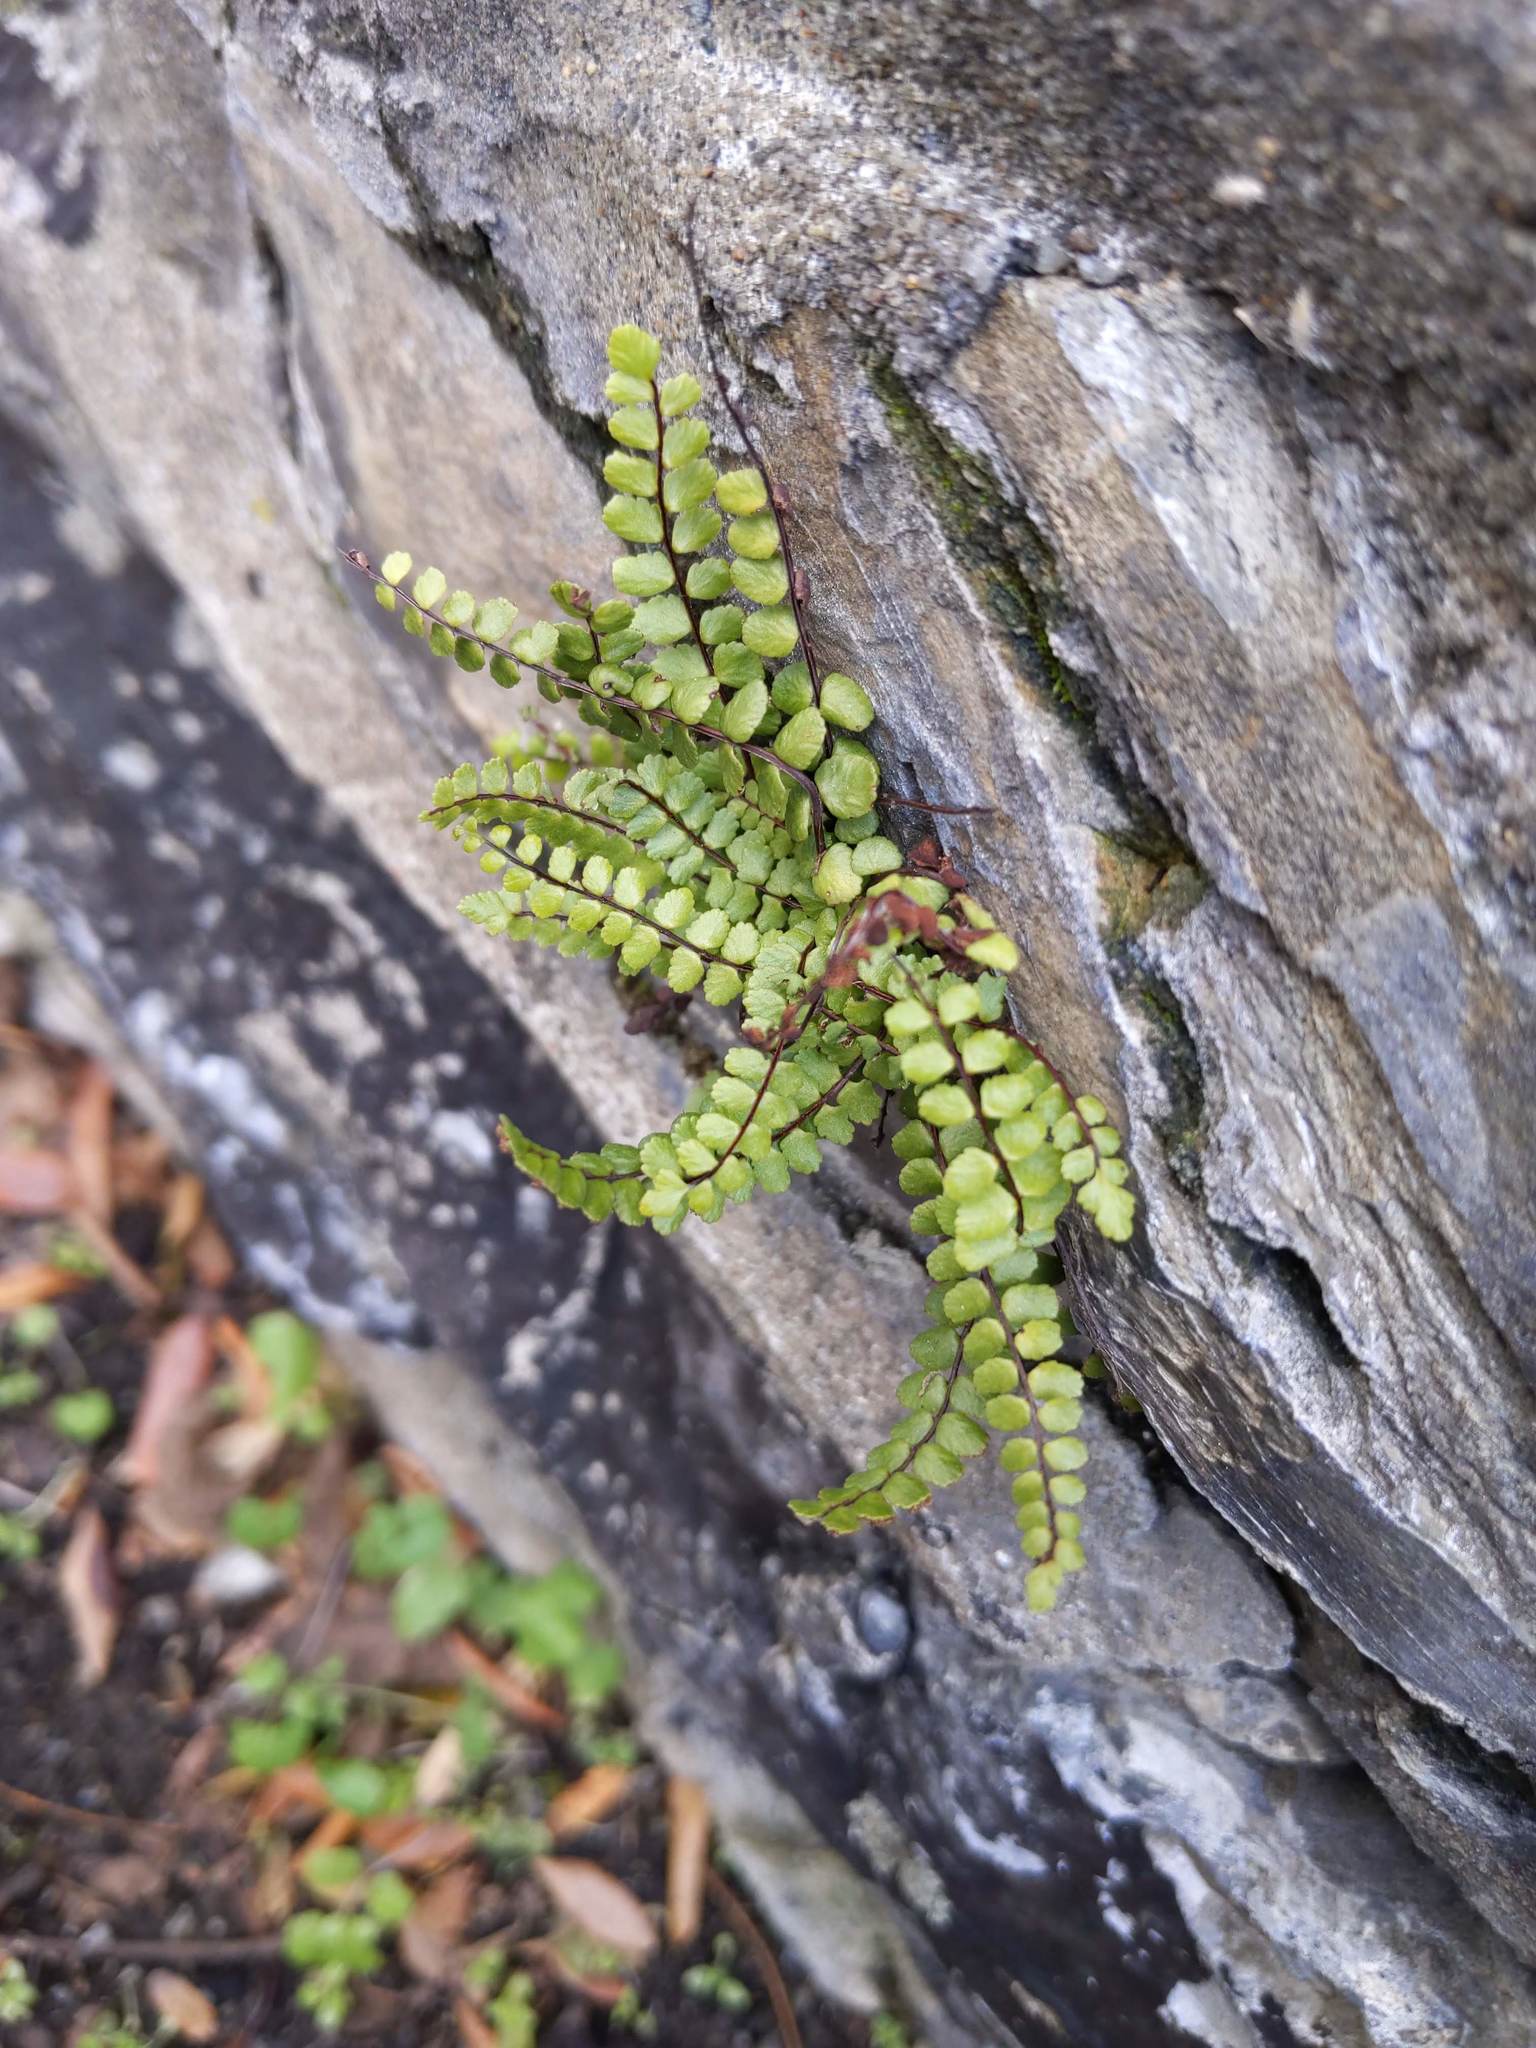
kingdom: Plantae
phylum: Tracheophyta
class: Polypodiopsida
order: Polypodiales
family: Aspleniaceae
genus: Asplenium
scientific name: Asplenium trichomanes
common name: Maidenhair spleenwort
